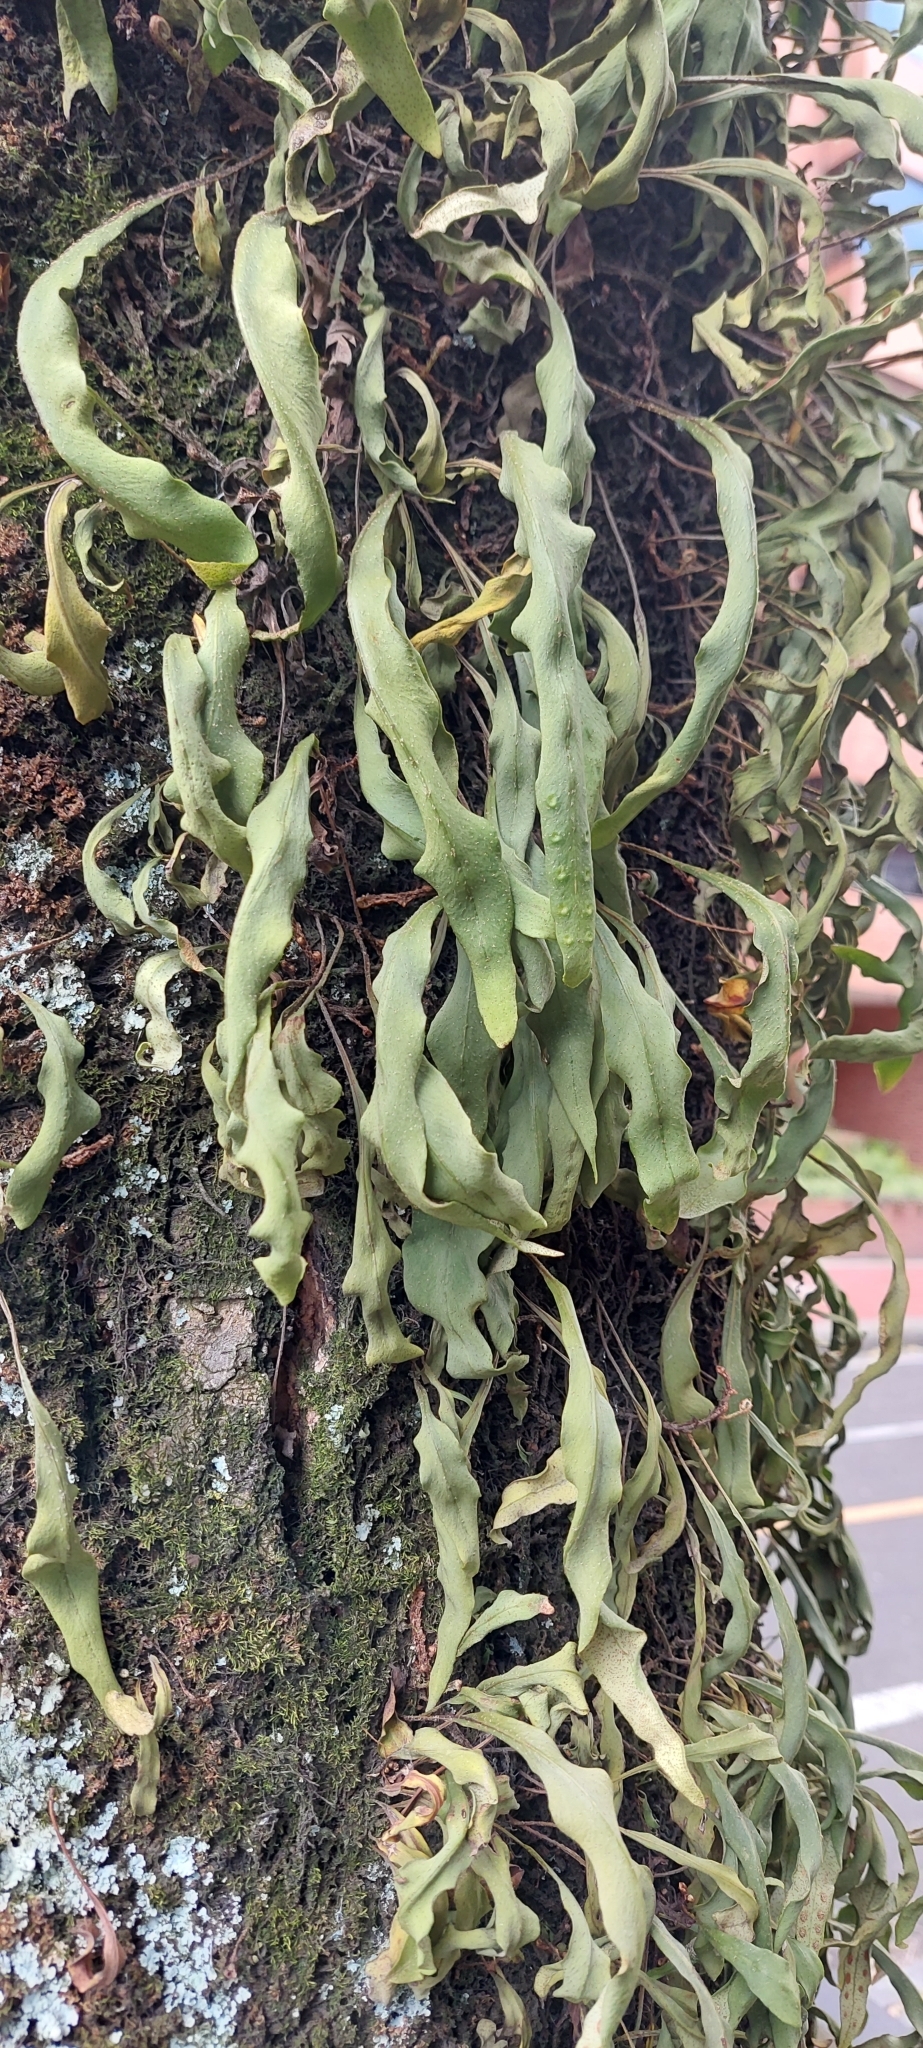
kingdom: Plantae
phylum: Tracheophyta
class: Polypodiopsida
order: Polypodiales
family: Polypodiaceae
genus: Pleopeltis
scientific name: Pleopeltis macrocarpa
